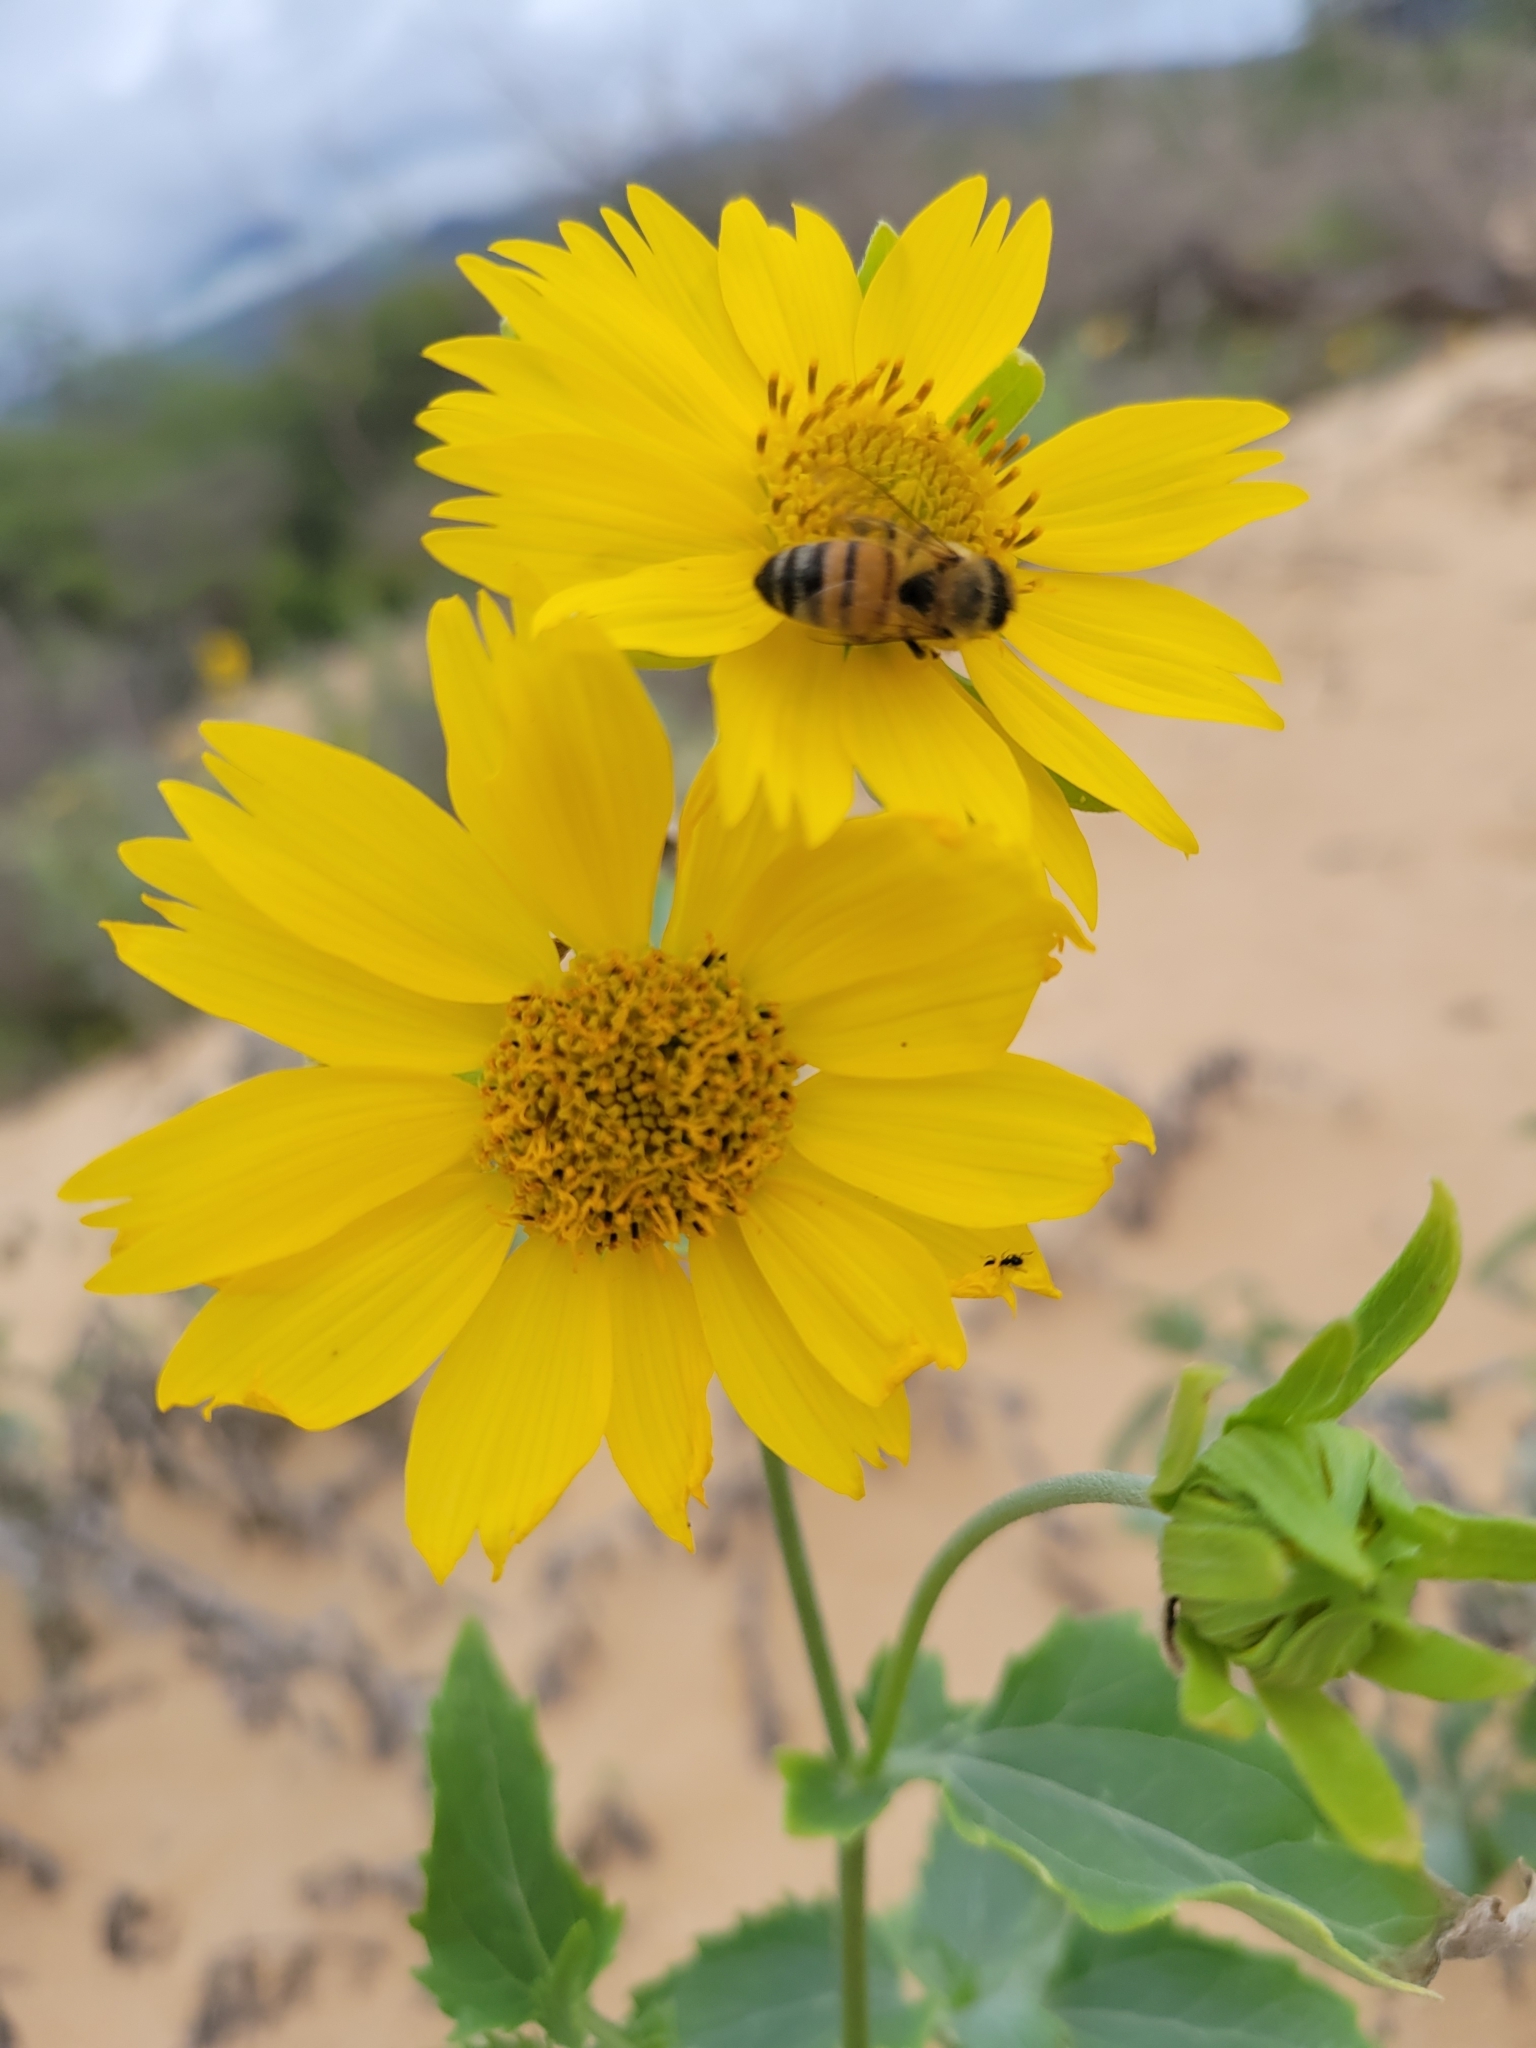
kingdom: Plantae
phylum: Tracheophyta
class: Magnoliopsida
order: Asterales
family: Asteraceae
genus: Verbesina
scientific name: Verbesina encelioides
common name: Golden crownbeard
